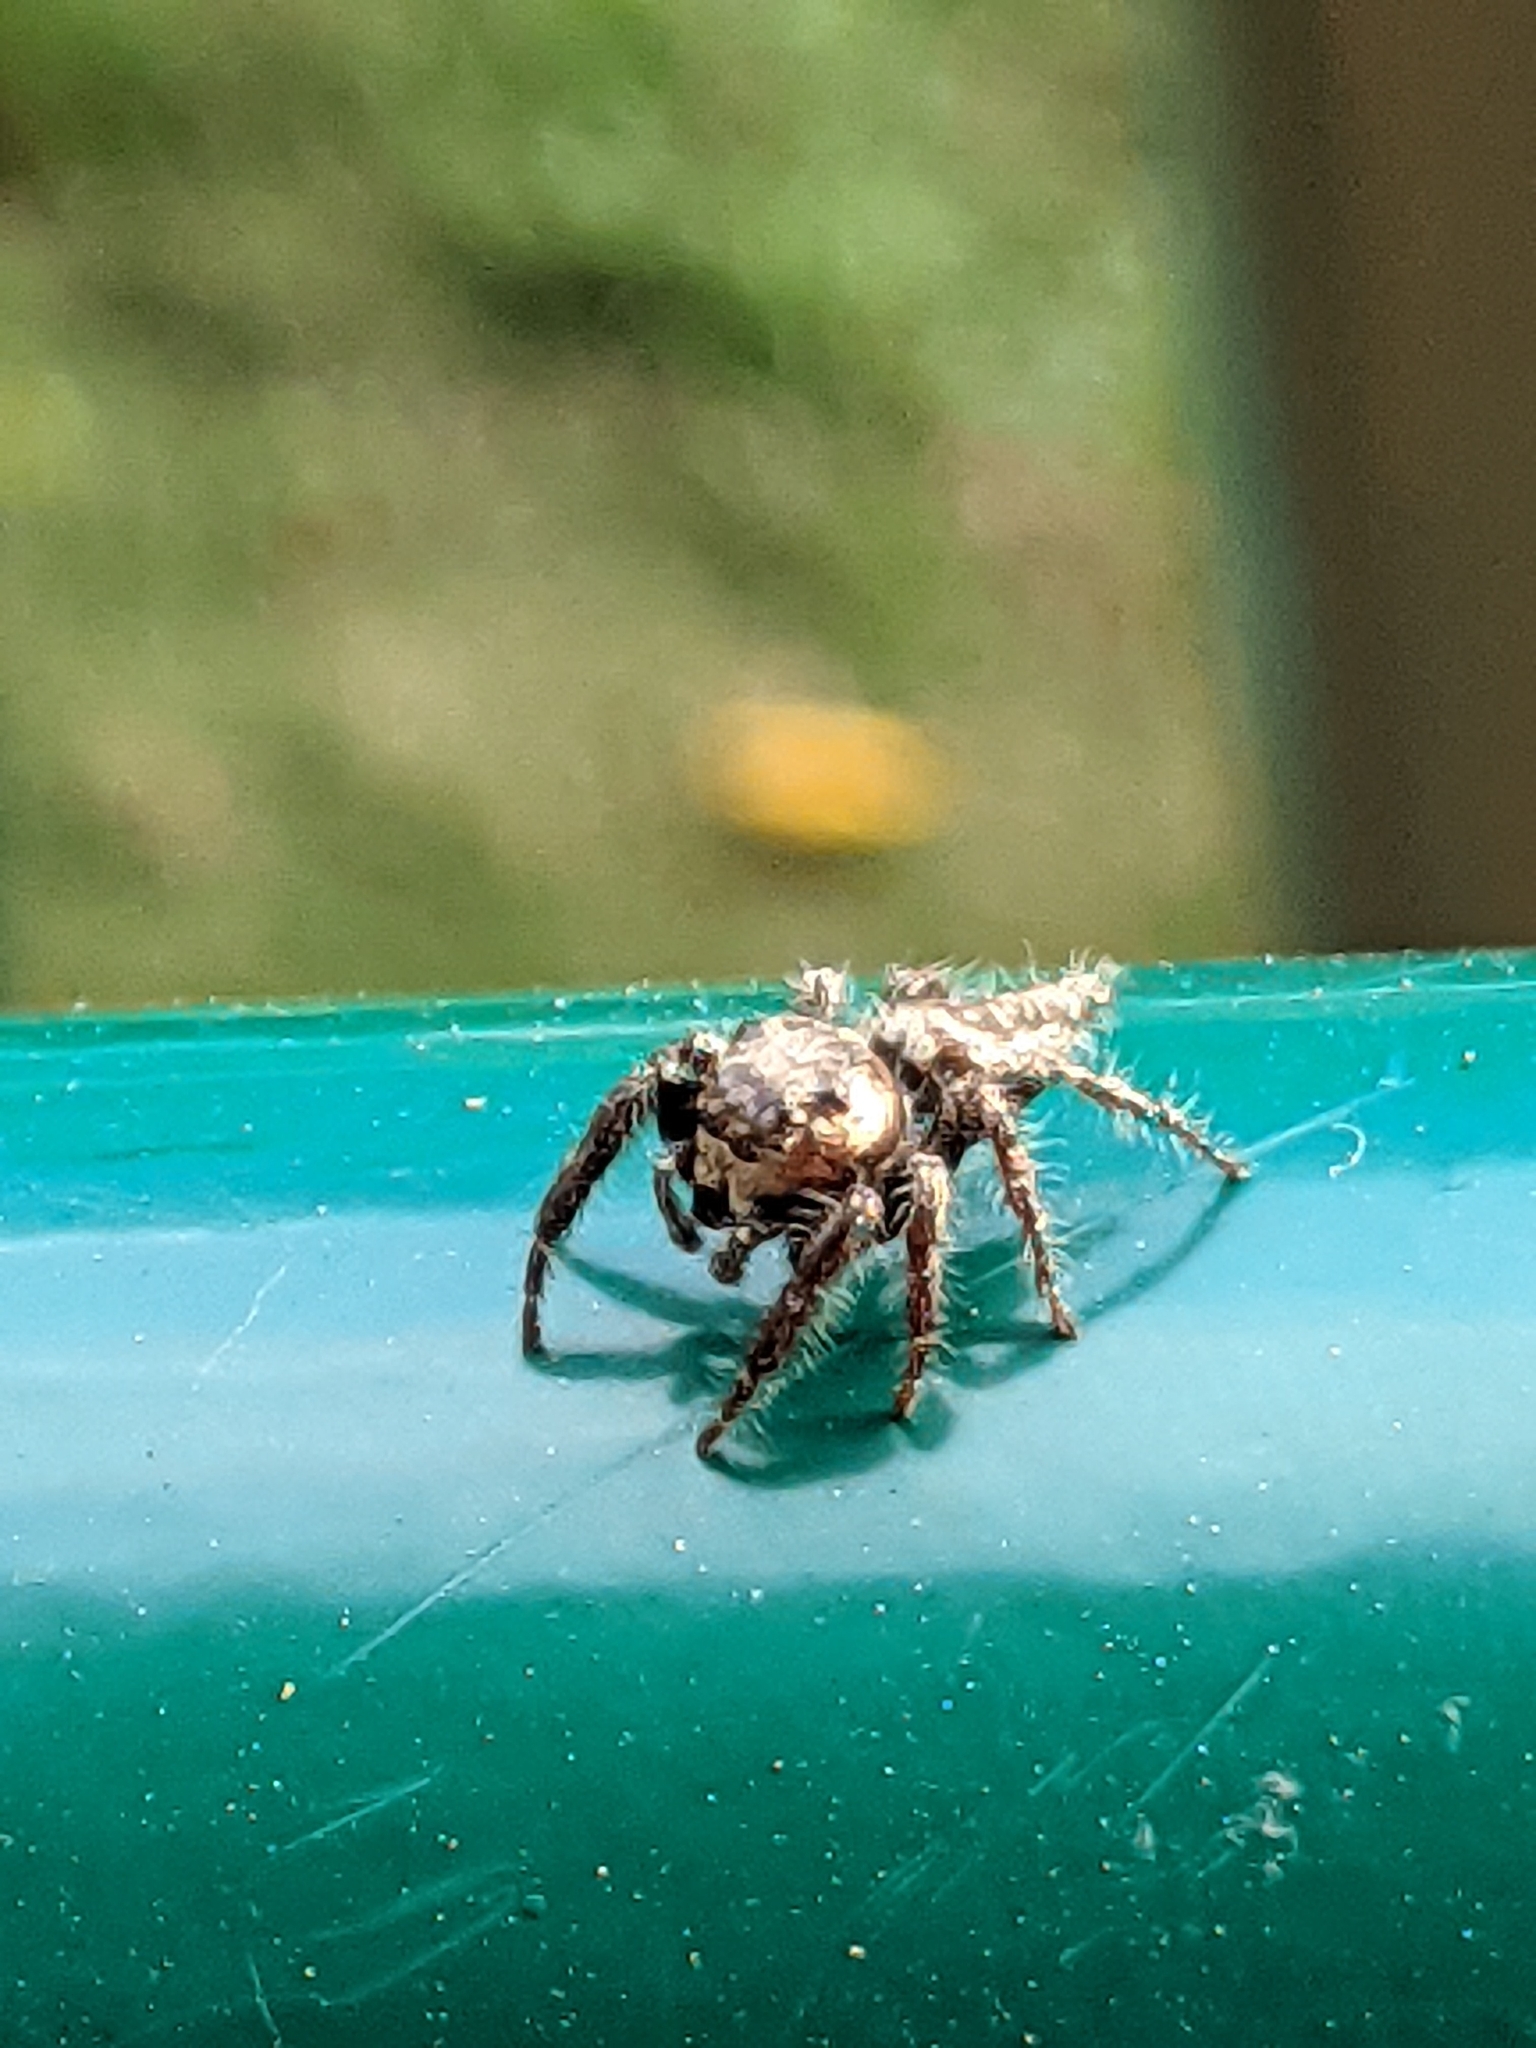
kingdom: Animalia
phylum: Arthropoda
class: Arachnida
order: Araneae
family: Salticidae
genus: Hyllus
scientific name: Hyllus semicupreus
